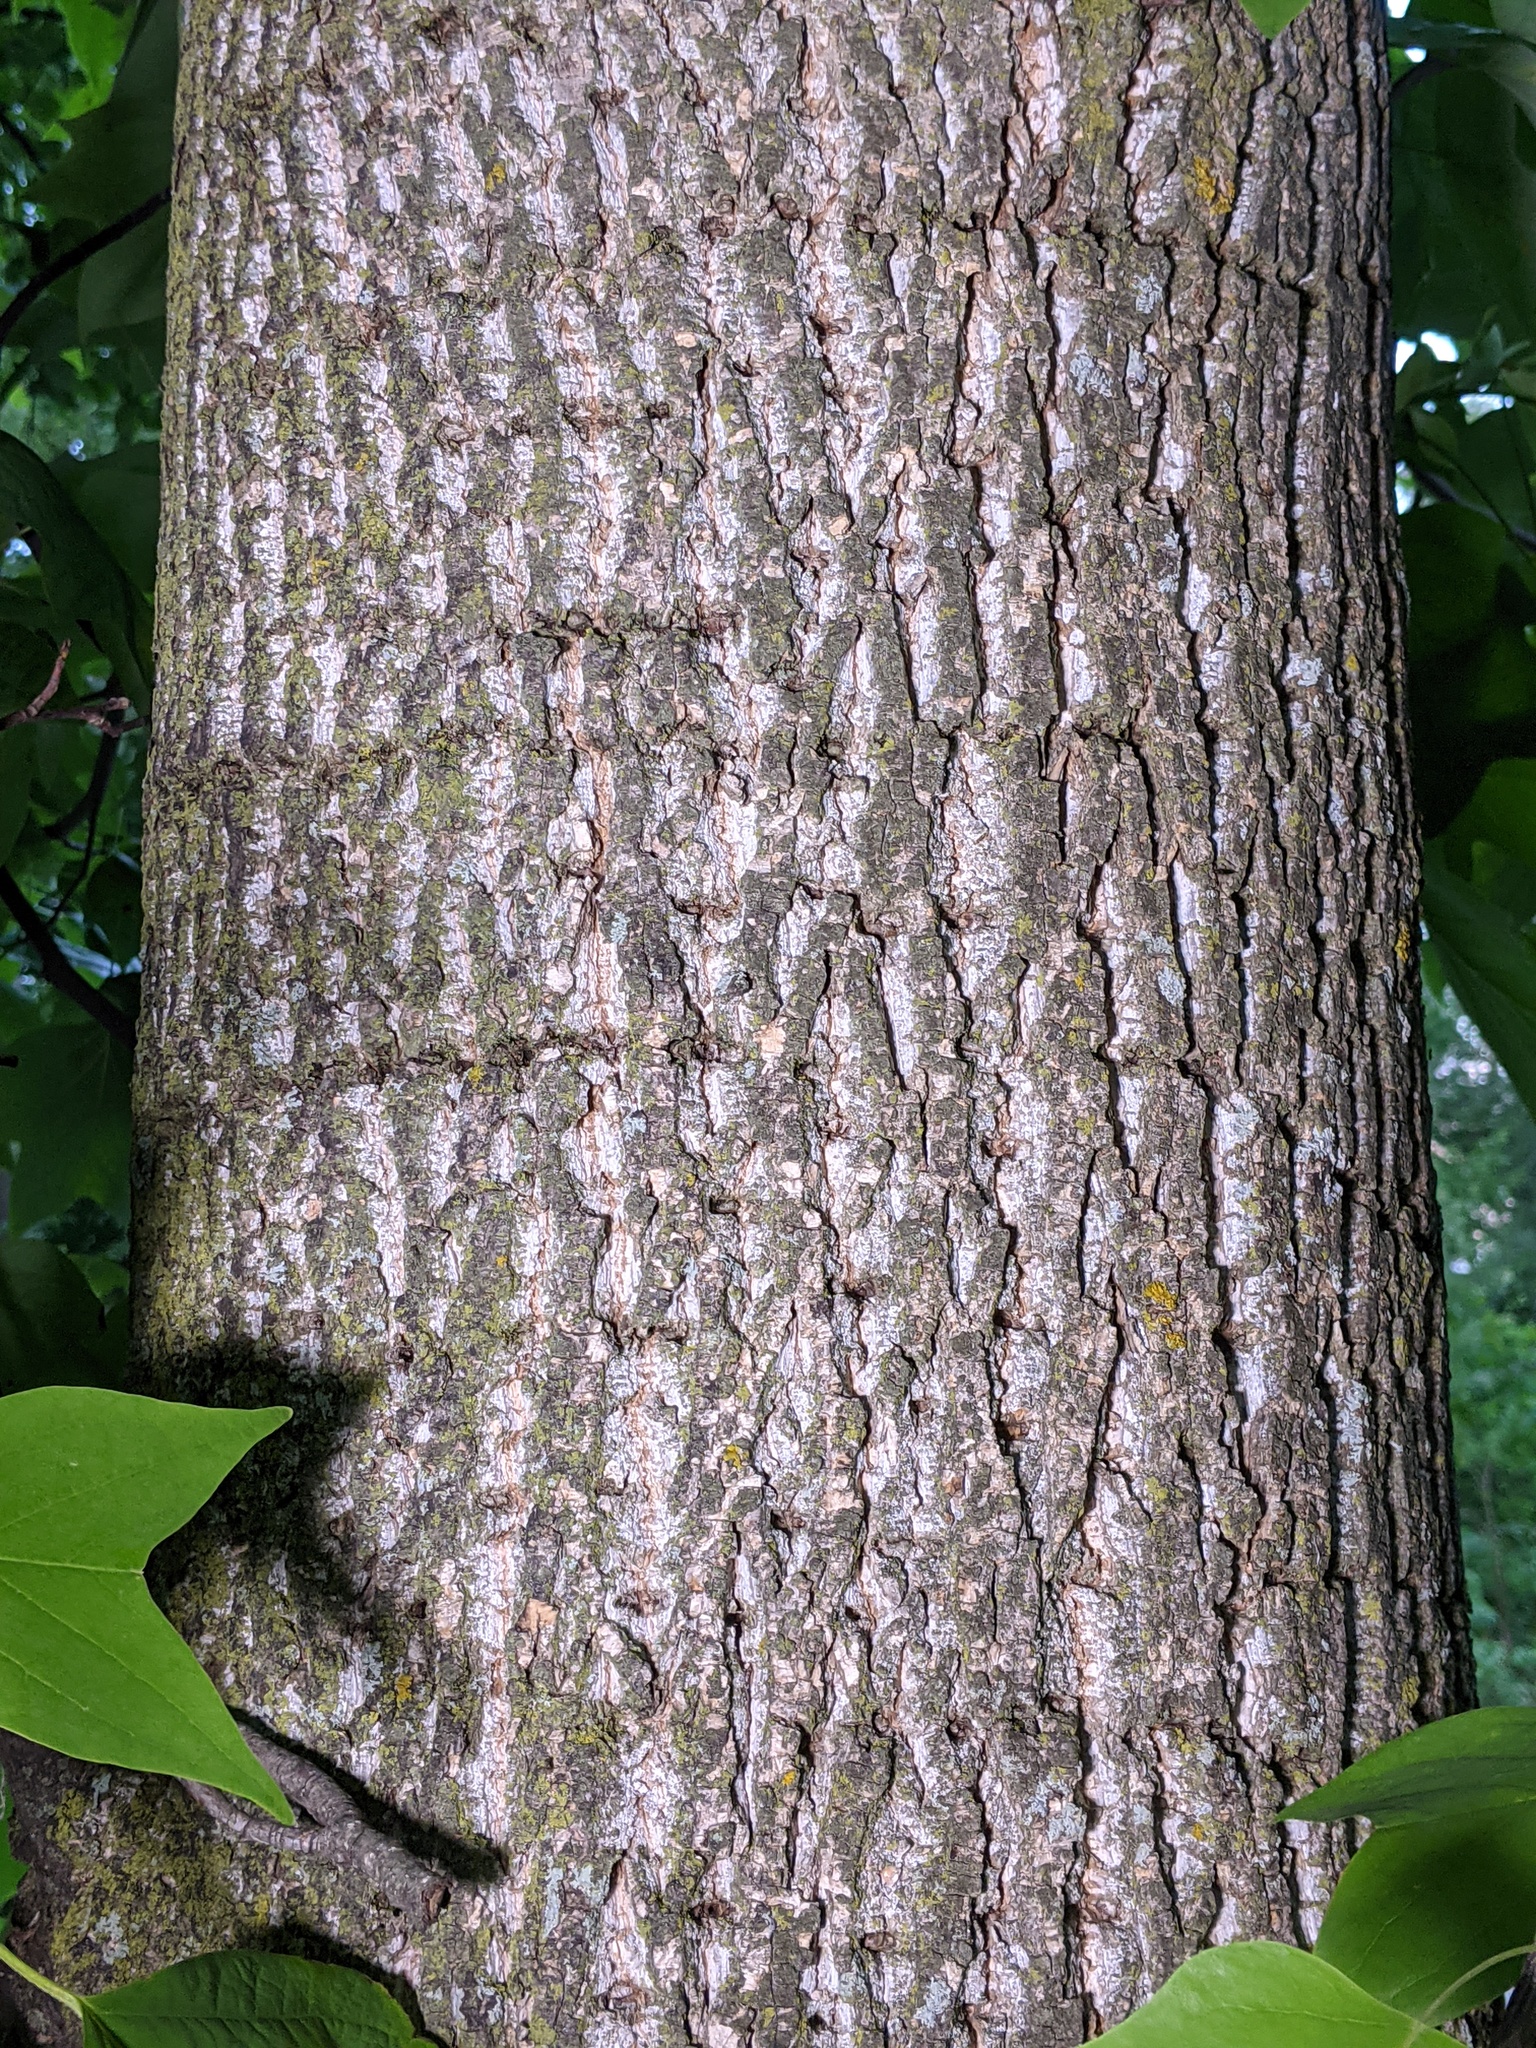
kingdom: Animalia
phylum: Chordata
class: Aves
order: Piciformes
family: Picidae
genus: Sphyrapicus
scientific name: Sphyrapicus varius
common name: Yellow-bellied sapsucker
